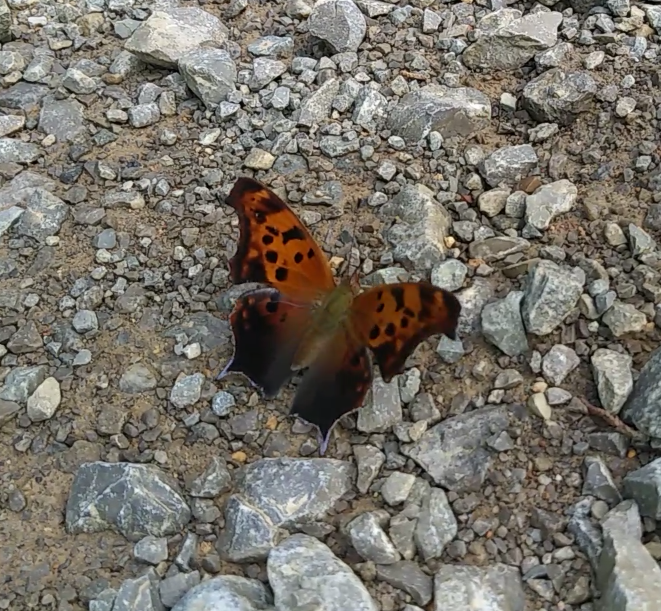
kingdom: Animalia
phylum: Arthropoda
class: Insecta
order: Lepidoptera
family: Nymphalidae
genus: Polygonia
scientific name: Polygonia interrogationis
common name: Question mark
